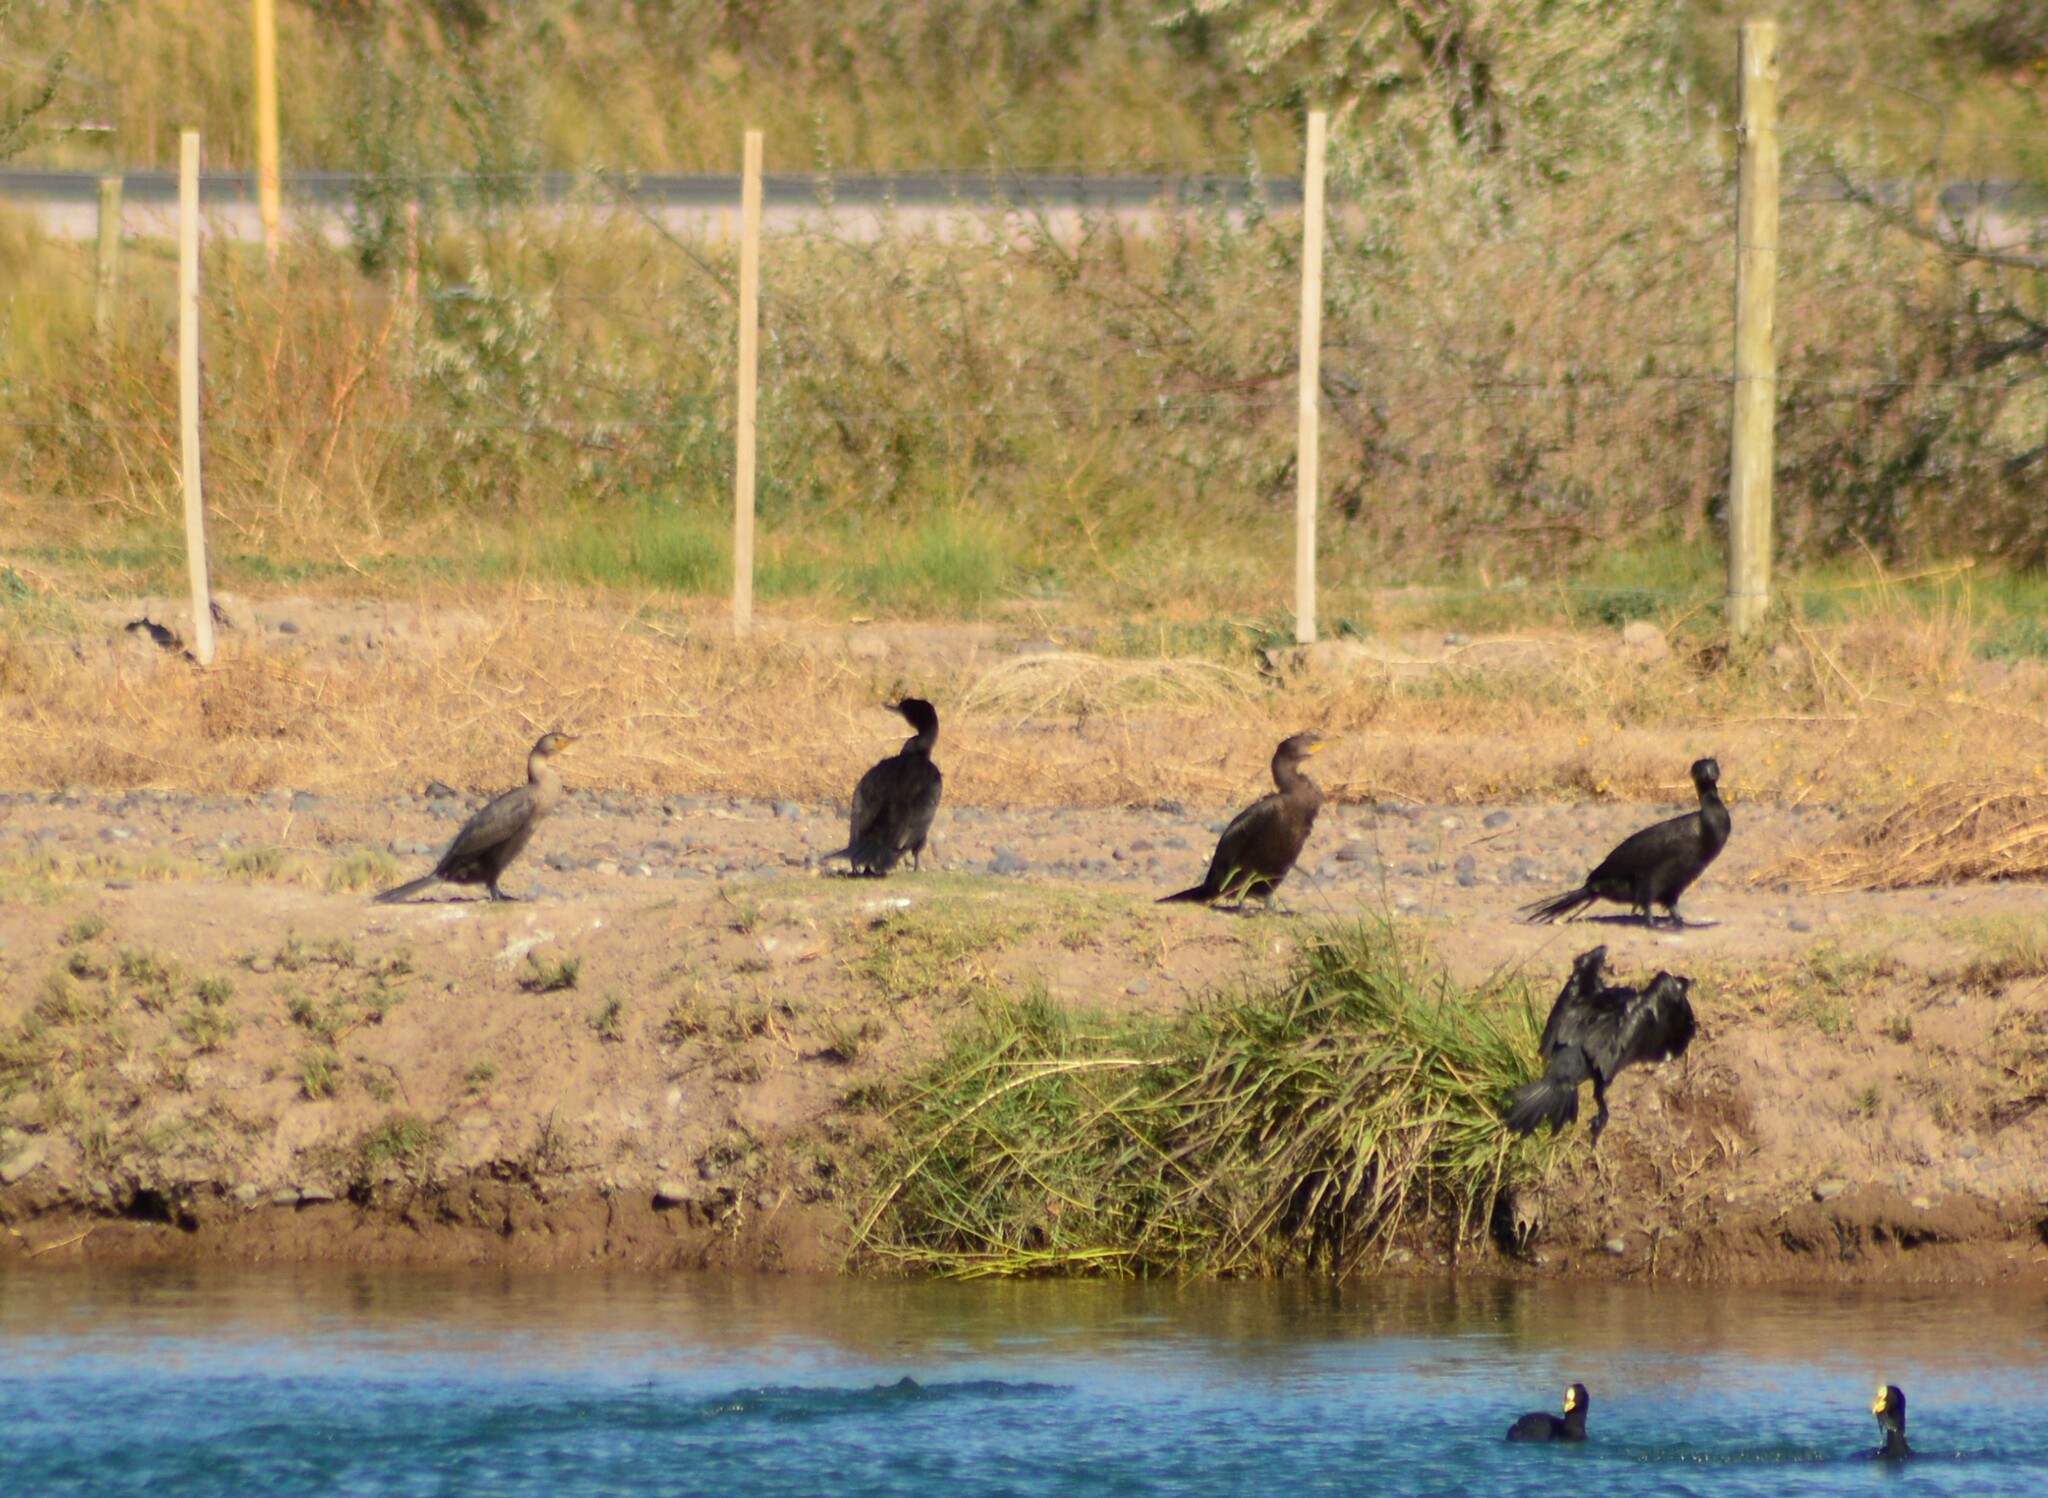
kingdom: Animalia
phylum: Chordata
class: Aves
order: Suliformes
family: Phalacrocoracidae
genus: Phalacrocorax
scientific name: Phalacrocorax brasilianus
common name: Neotropic cormorant
